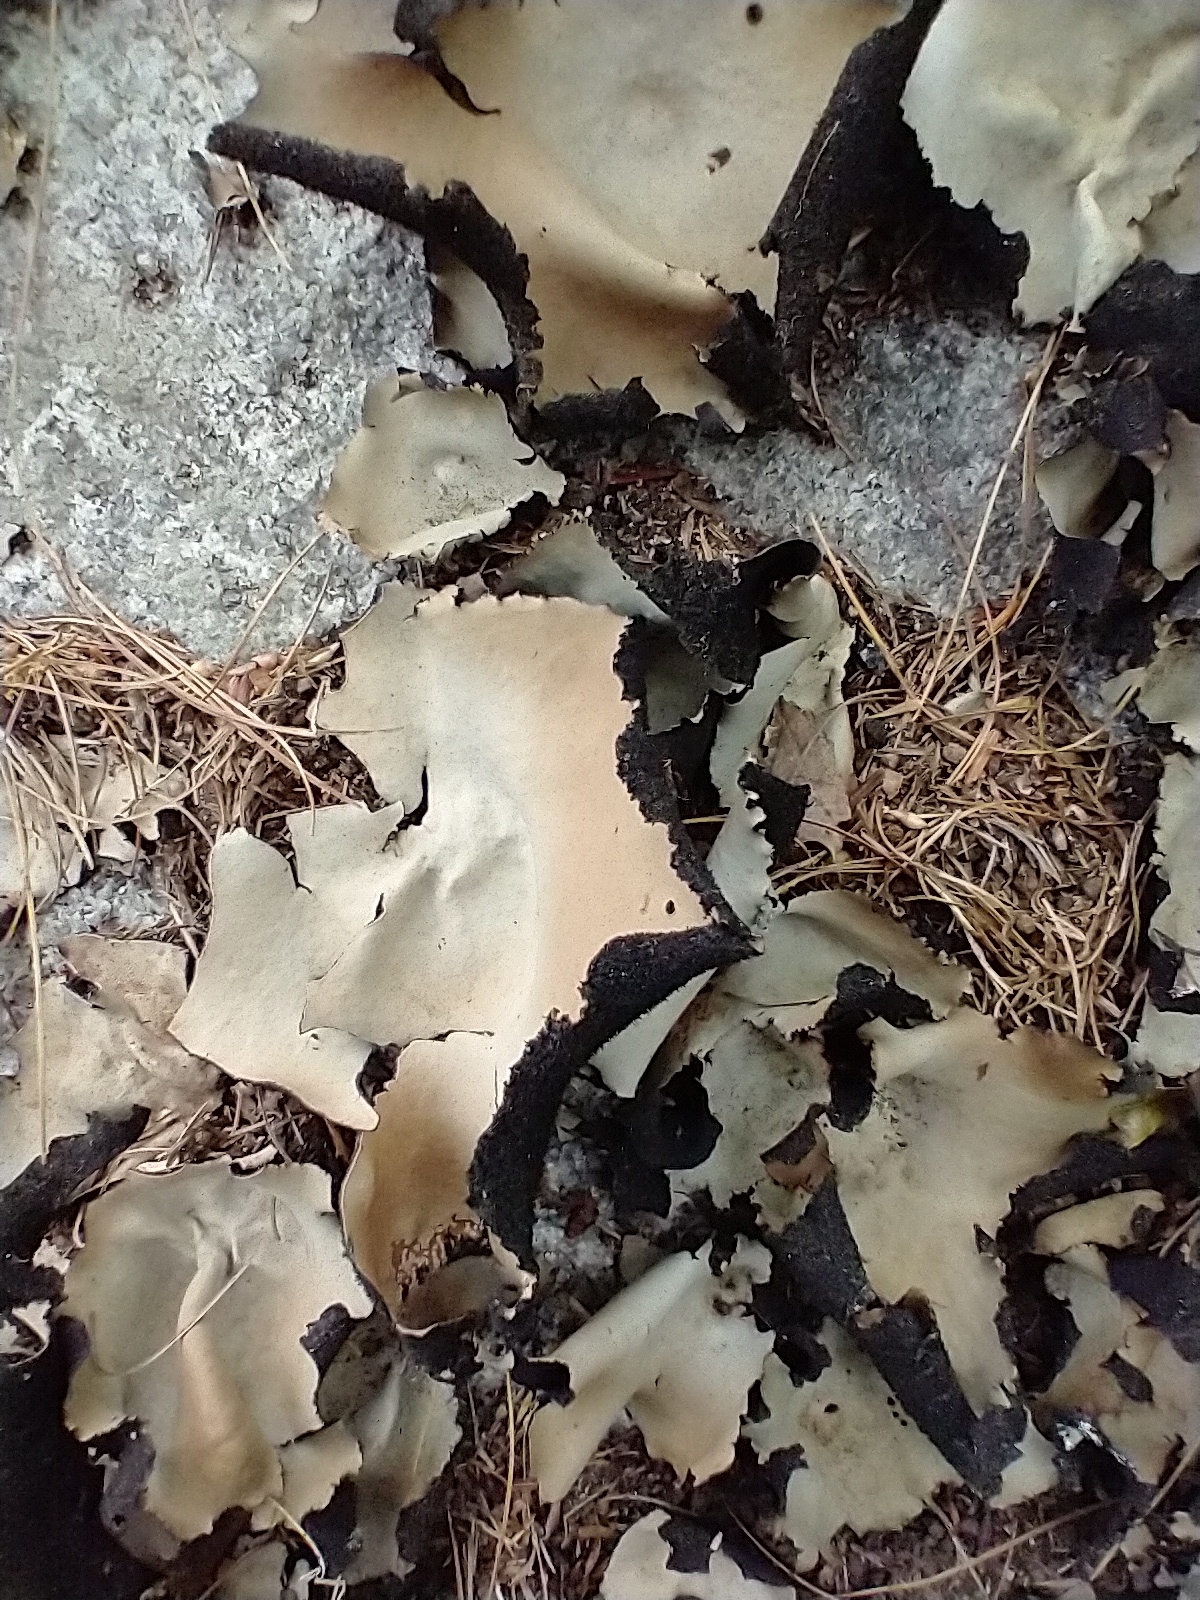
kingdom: Fungi
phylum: Ascomycota
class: Lecanoromycetes
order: Umbilicariales
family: Umbilicariaceae
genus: Umbilicaria
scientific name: Umbilicaria mammulata
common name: Smooth rock tripe
